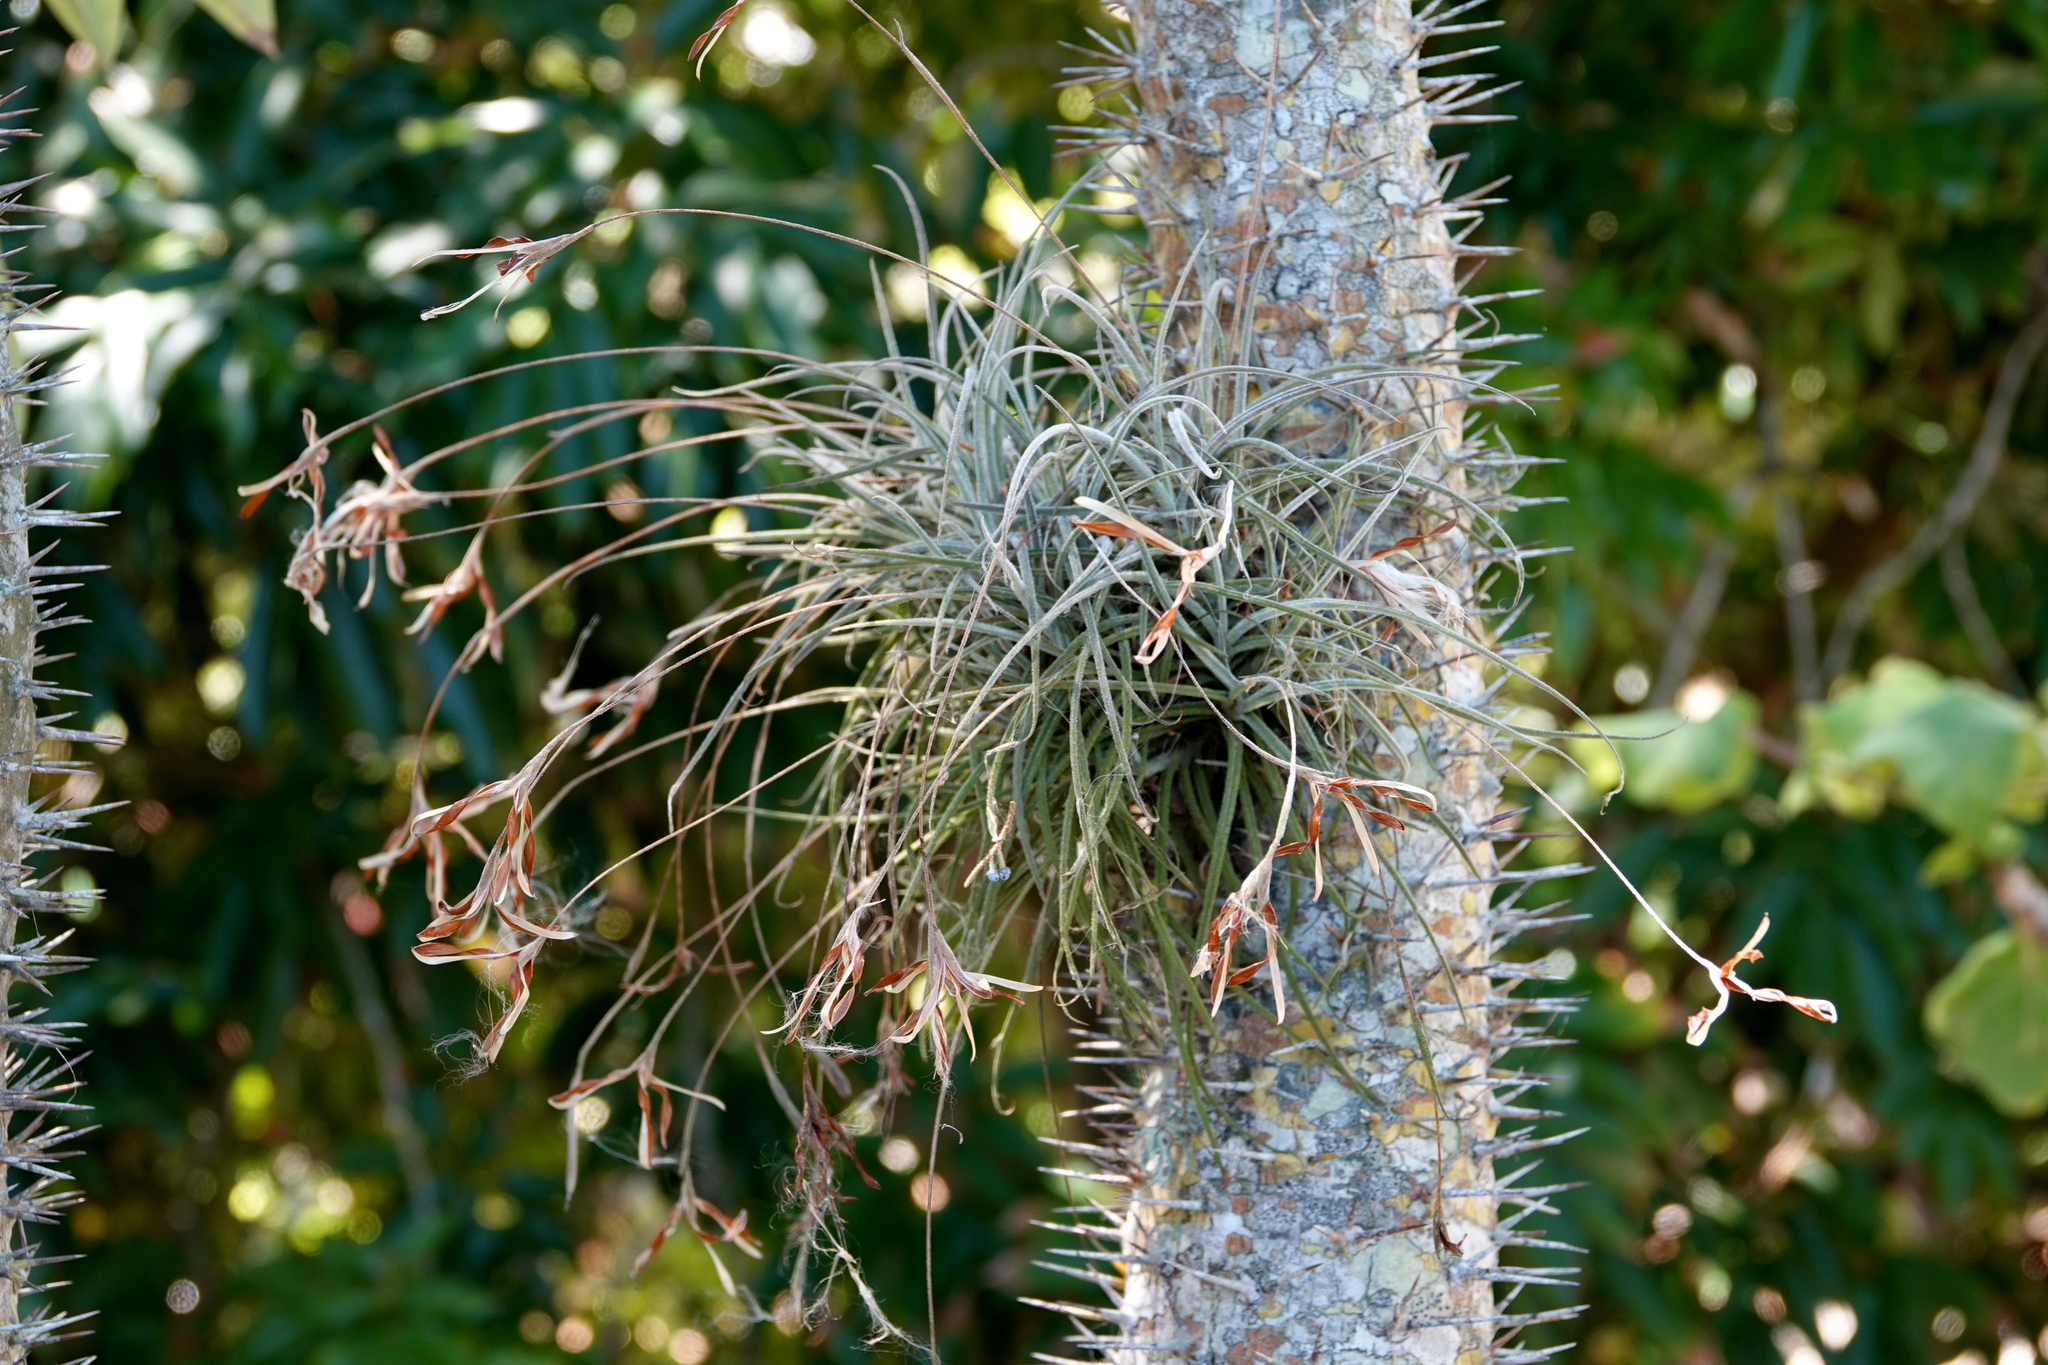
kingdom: Plantae
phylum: Tracheophyta
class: Liliopsida
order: Poales
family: Bromeliaceae
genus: Tillandsia
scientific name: Tillandsia recurvata
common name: Small ballmoss
